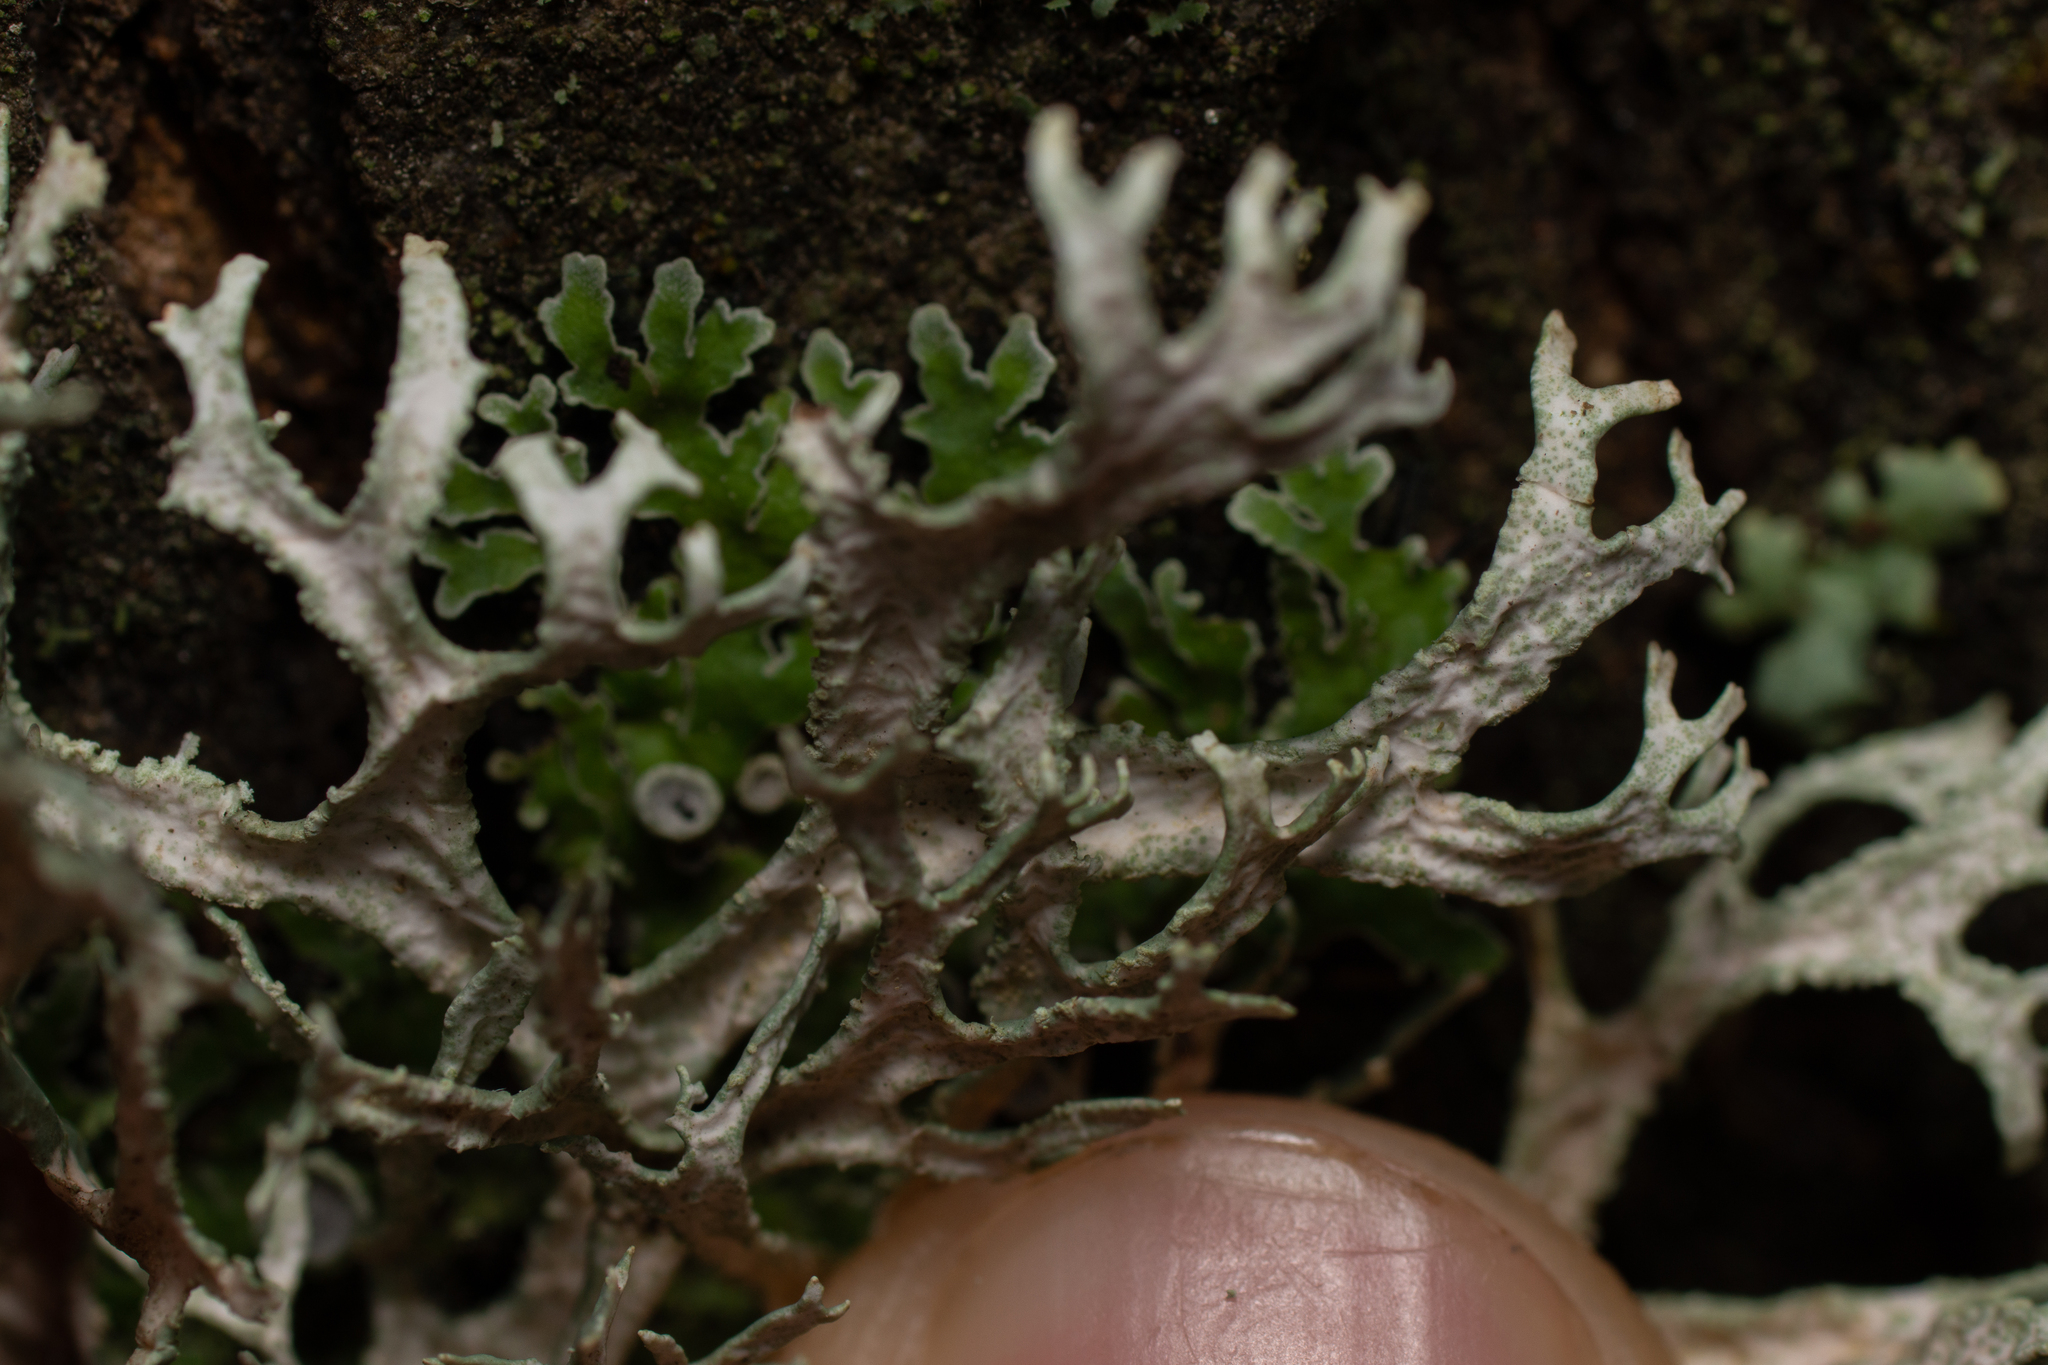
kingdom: Fungi
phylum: Ascomycota
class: Lecanoromycetes
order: Lecanorales
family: Parmeliaceae
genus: Evernia
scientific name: Evernia prunastri
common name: Oak moss
